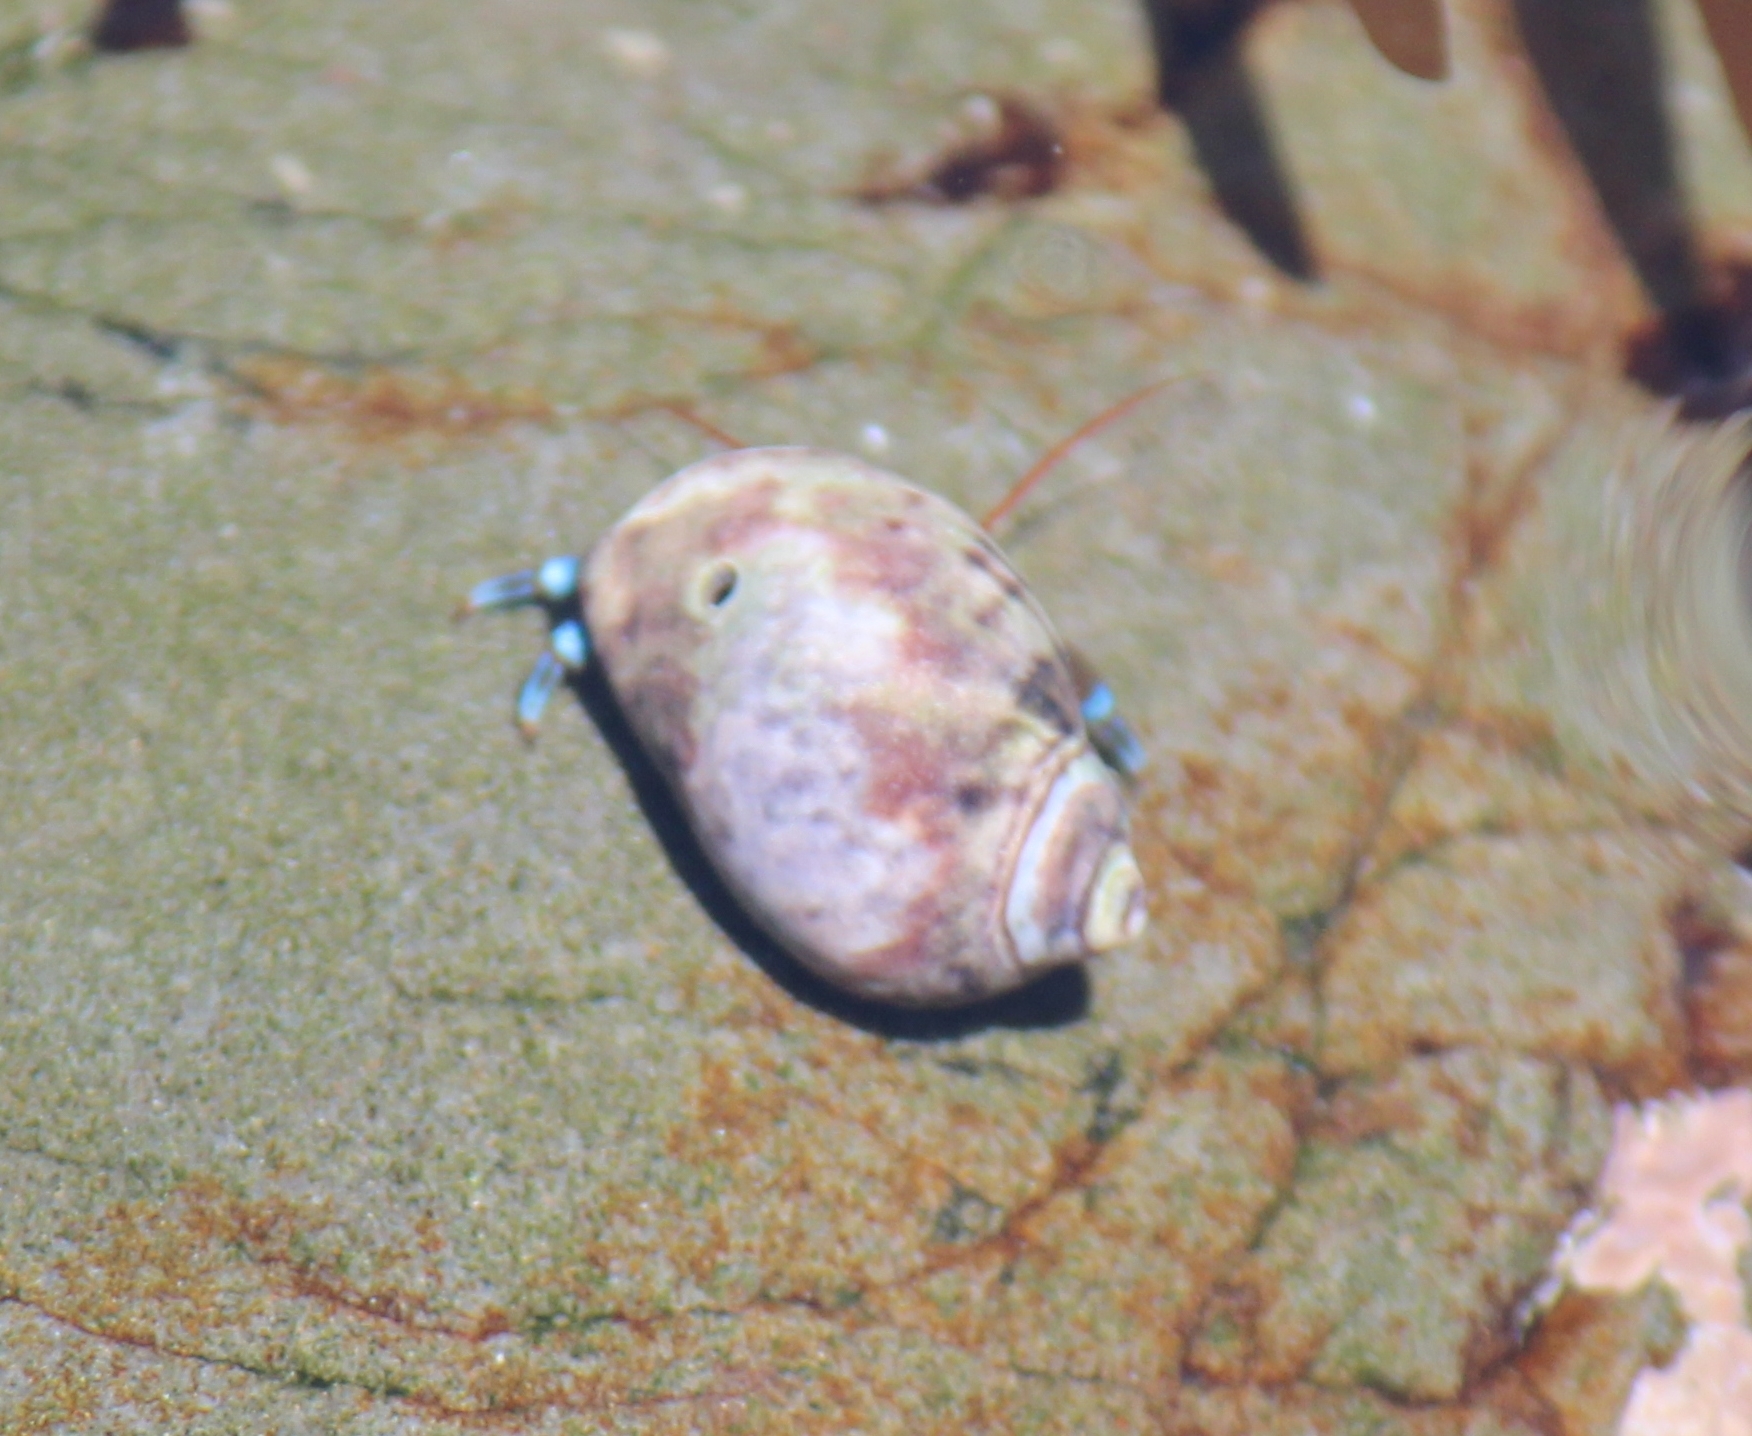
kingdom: Animalia
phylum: Mollusca
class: Gastropoda
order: Neogastropoda
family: Olividae
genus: Callianax
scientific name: Callianax biplicata
